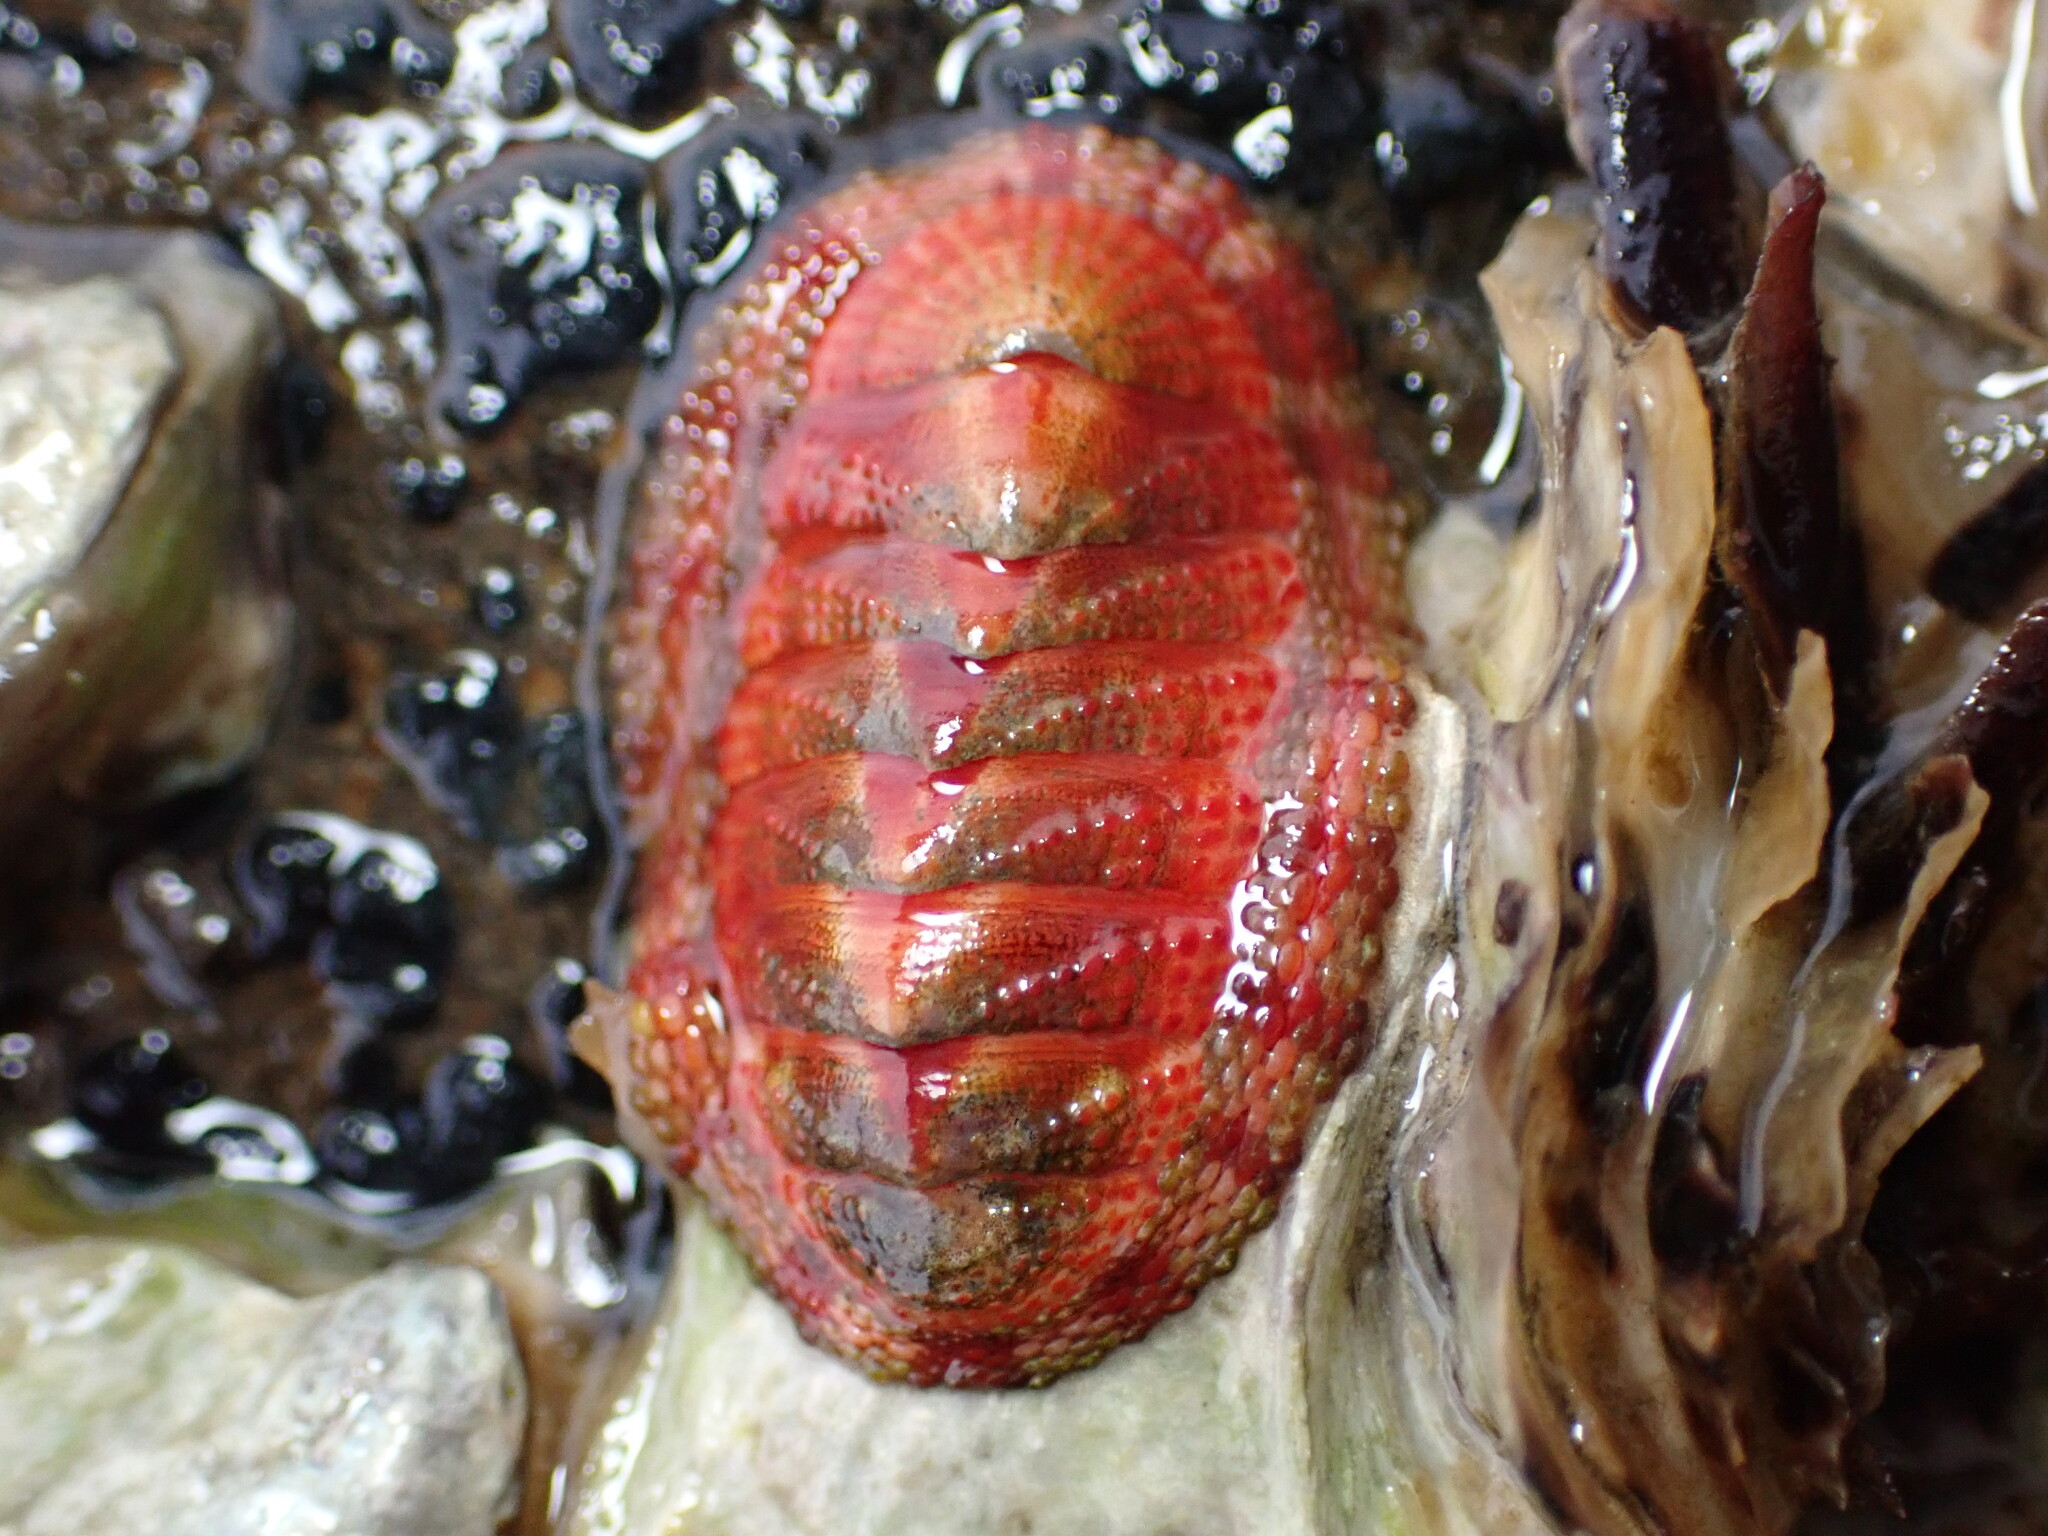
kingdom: Animalia
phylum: Mollusca
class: Polyplacophora
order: Chitonida
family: Chitonidae
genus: Sypharochiton
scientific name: Sypharochiton pelliserpentis
